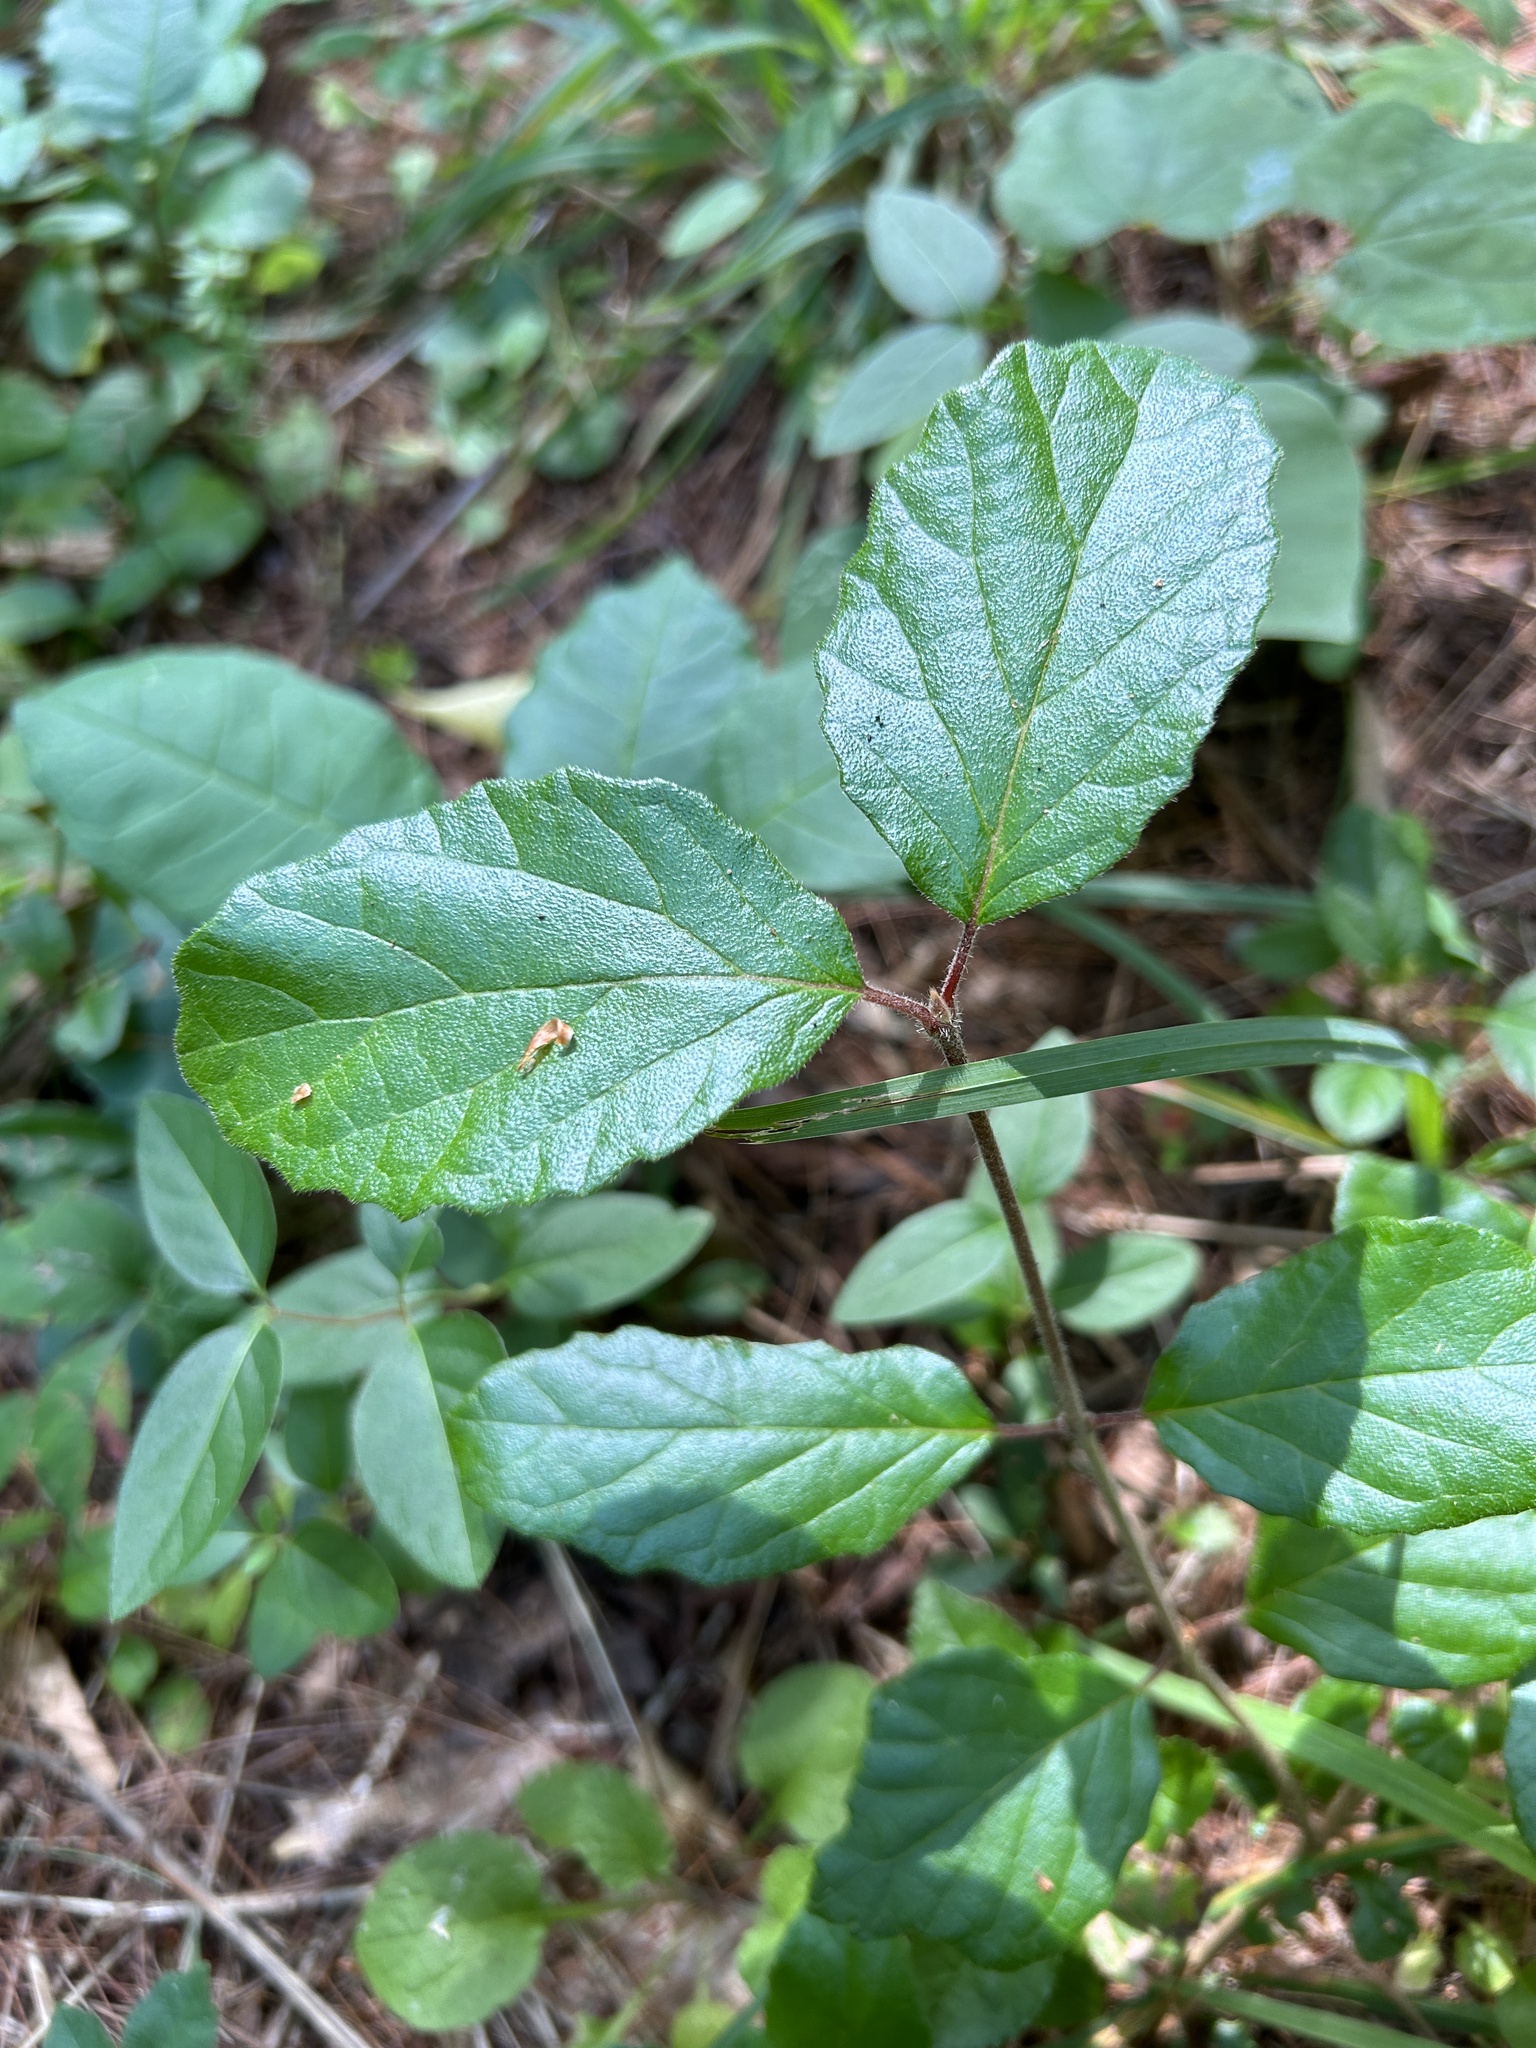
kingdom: Plantae
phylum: Tracheophyta
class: Magnoliopsida
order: Dipsacales
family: Viburnaceae
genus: Viburnum
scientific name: Viburnum dilatatum
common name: Linden arrowwood
